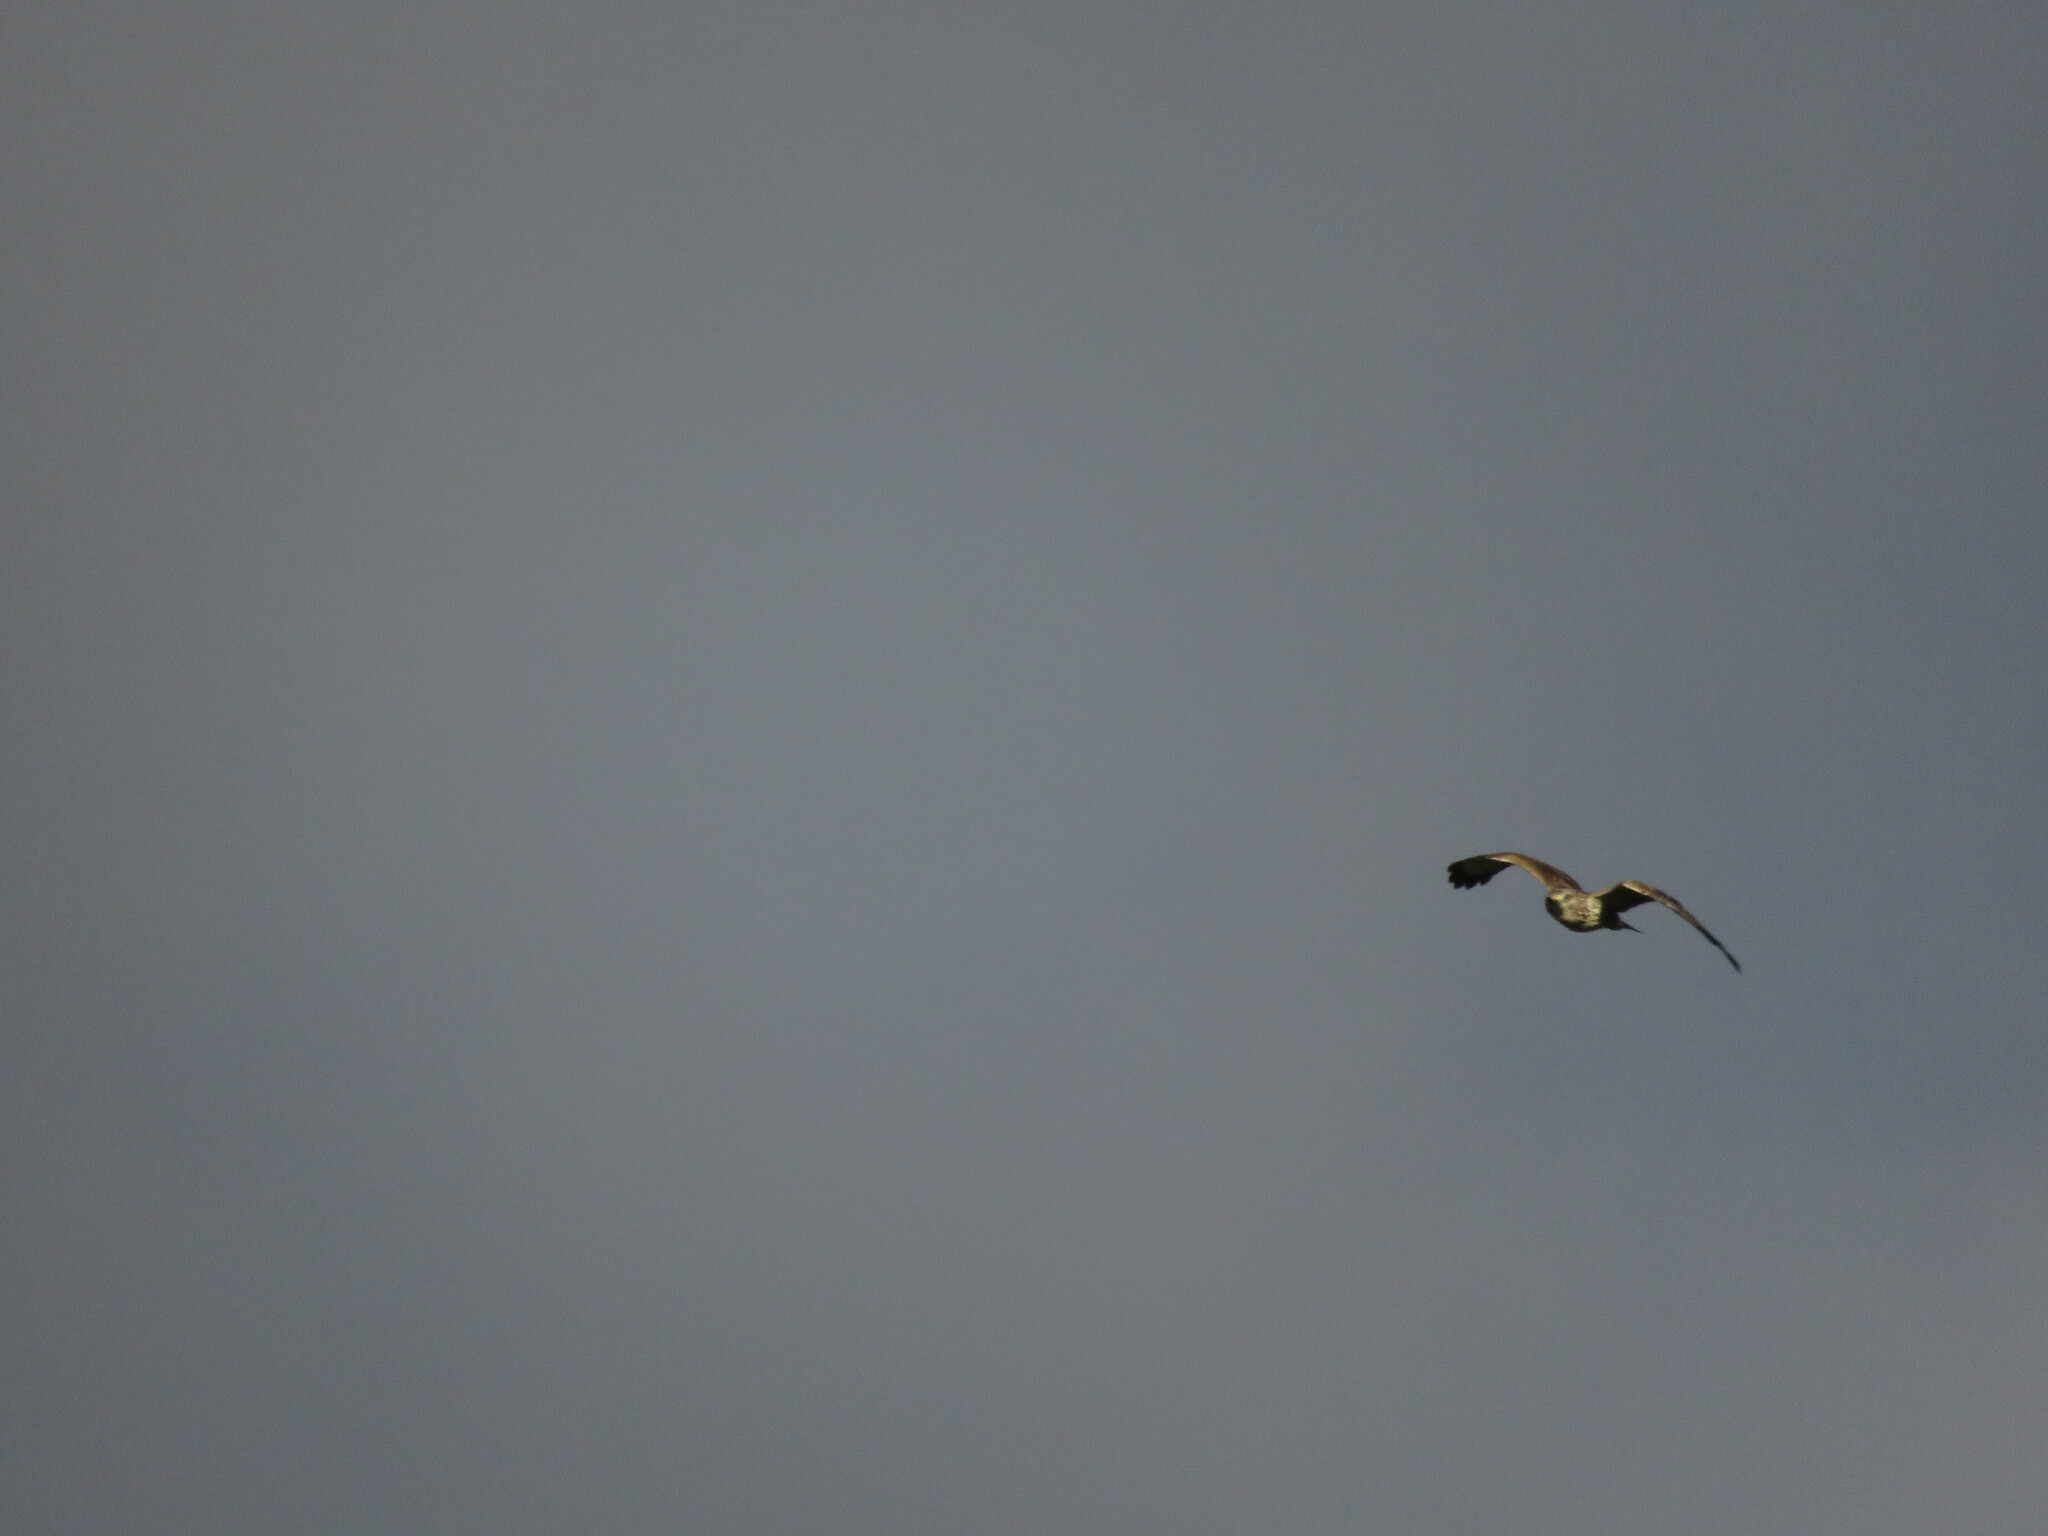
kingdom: Animalia
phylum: Chordata
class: Aves
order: Accipitriformes
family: Accipitridae
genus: Buteo
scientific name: Buteo buteo
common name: Common buzzard
